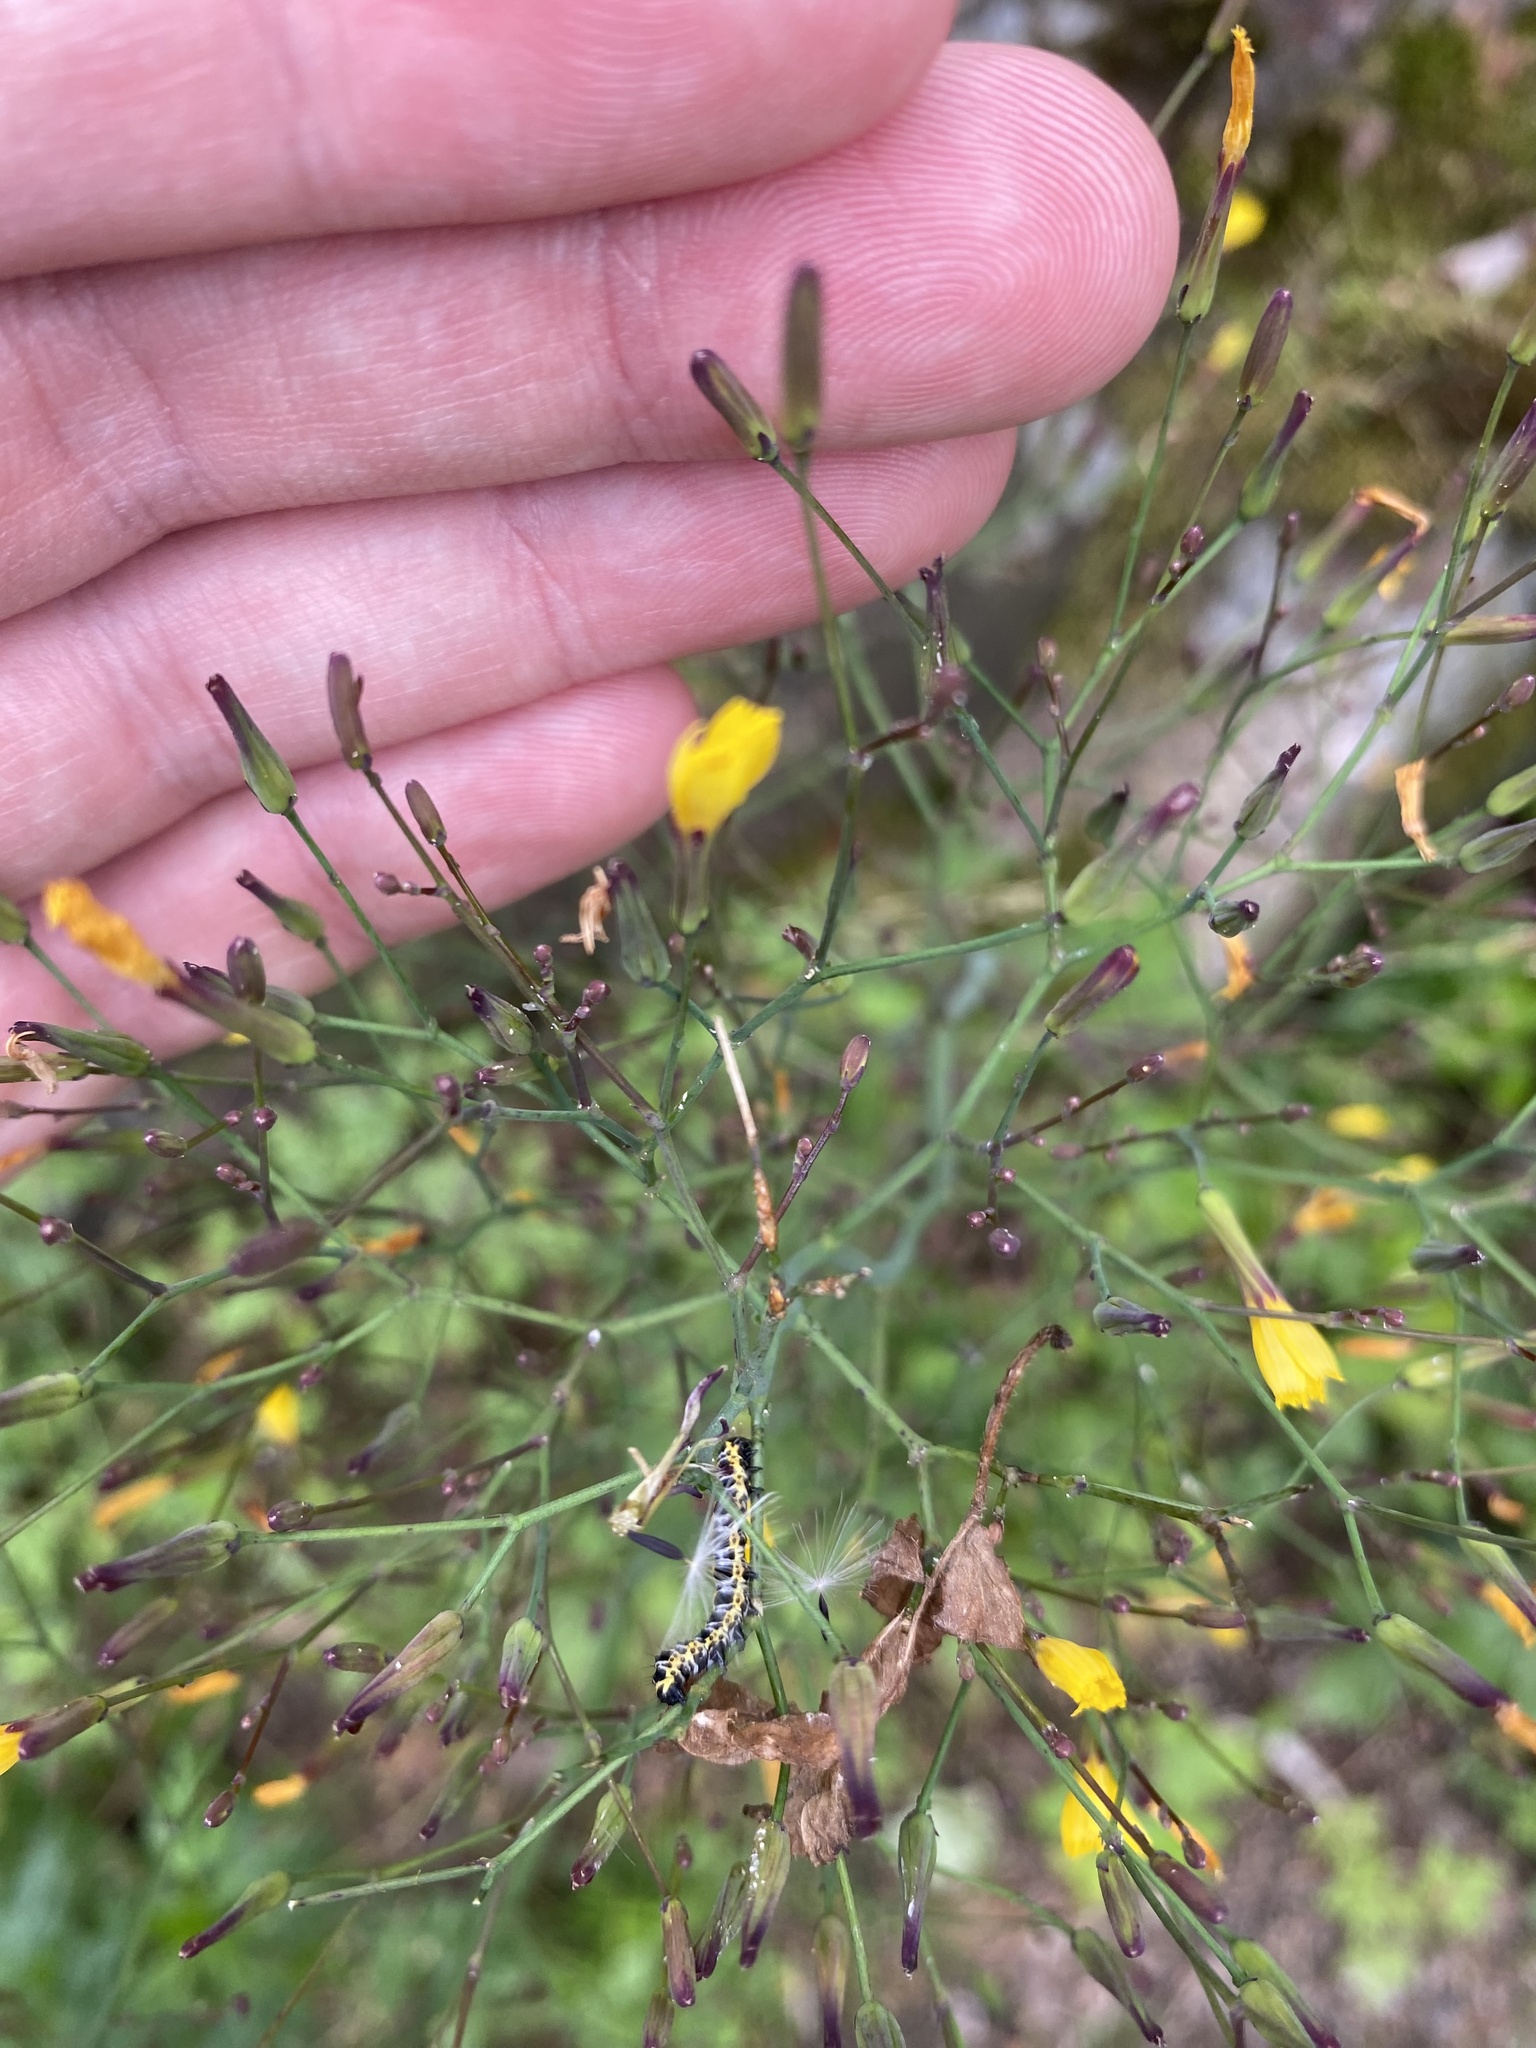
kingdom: Plantae
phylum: Tracheophyta
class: Magnoliopsida
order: Asterales
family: Asteraceae
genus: Mycelis
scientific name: Mycelis muralis
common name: Wall lettuce
